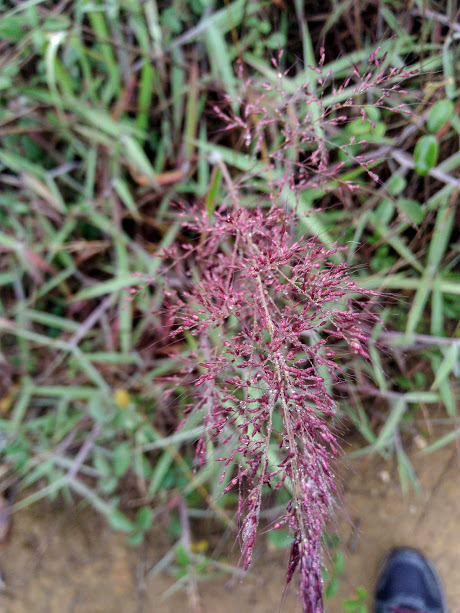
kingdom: Plantae
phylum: Tracheophyta
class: Liliopsida
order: Poales
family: Poaceae
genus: Melinis
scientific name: Melinis minutiflora
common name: Molassesgrass
